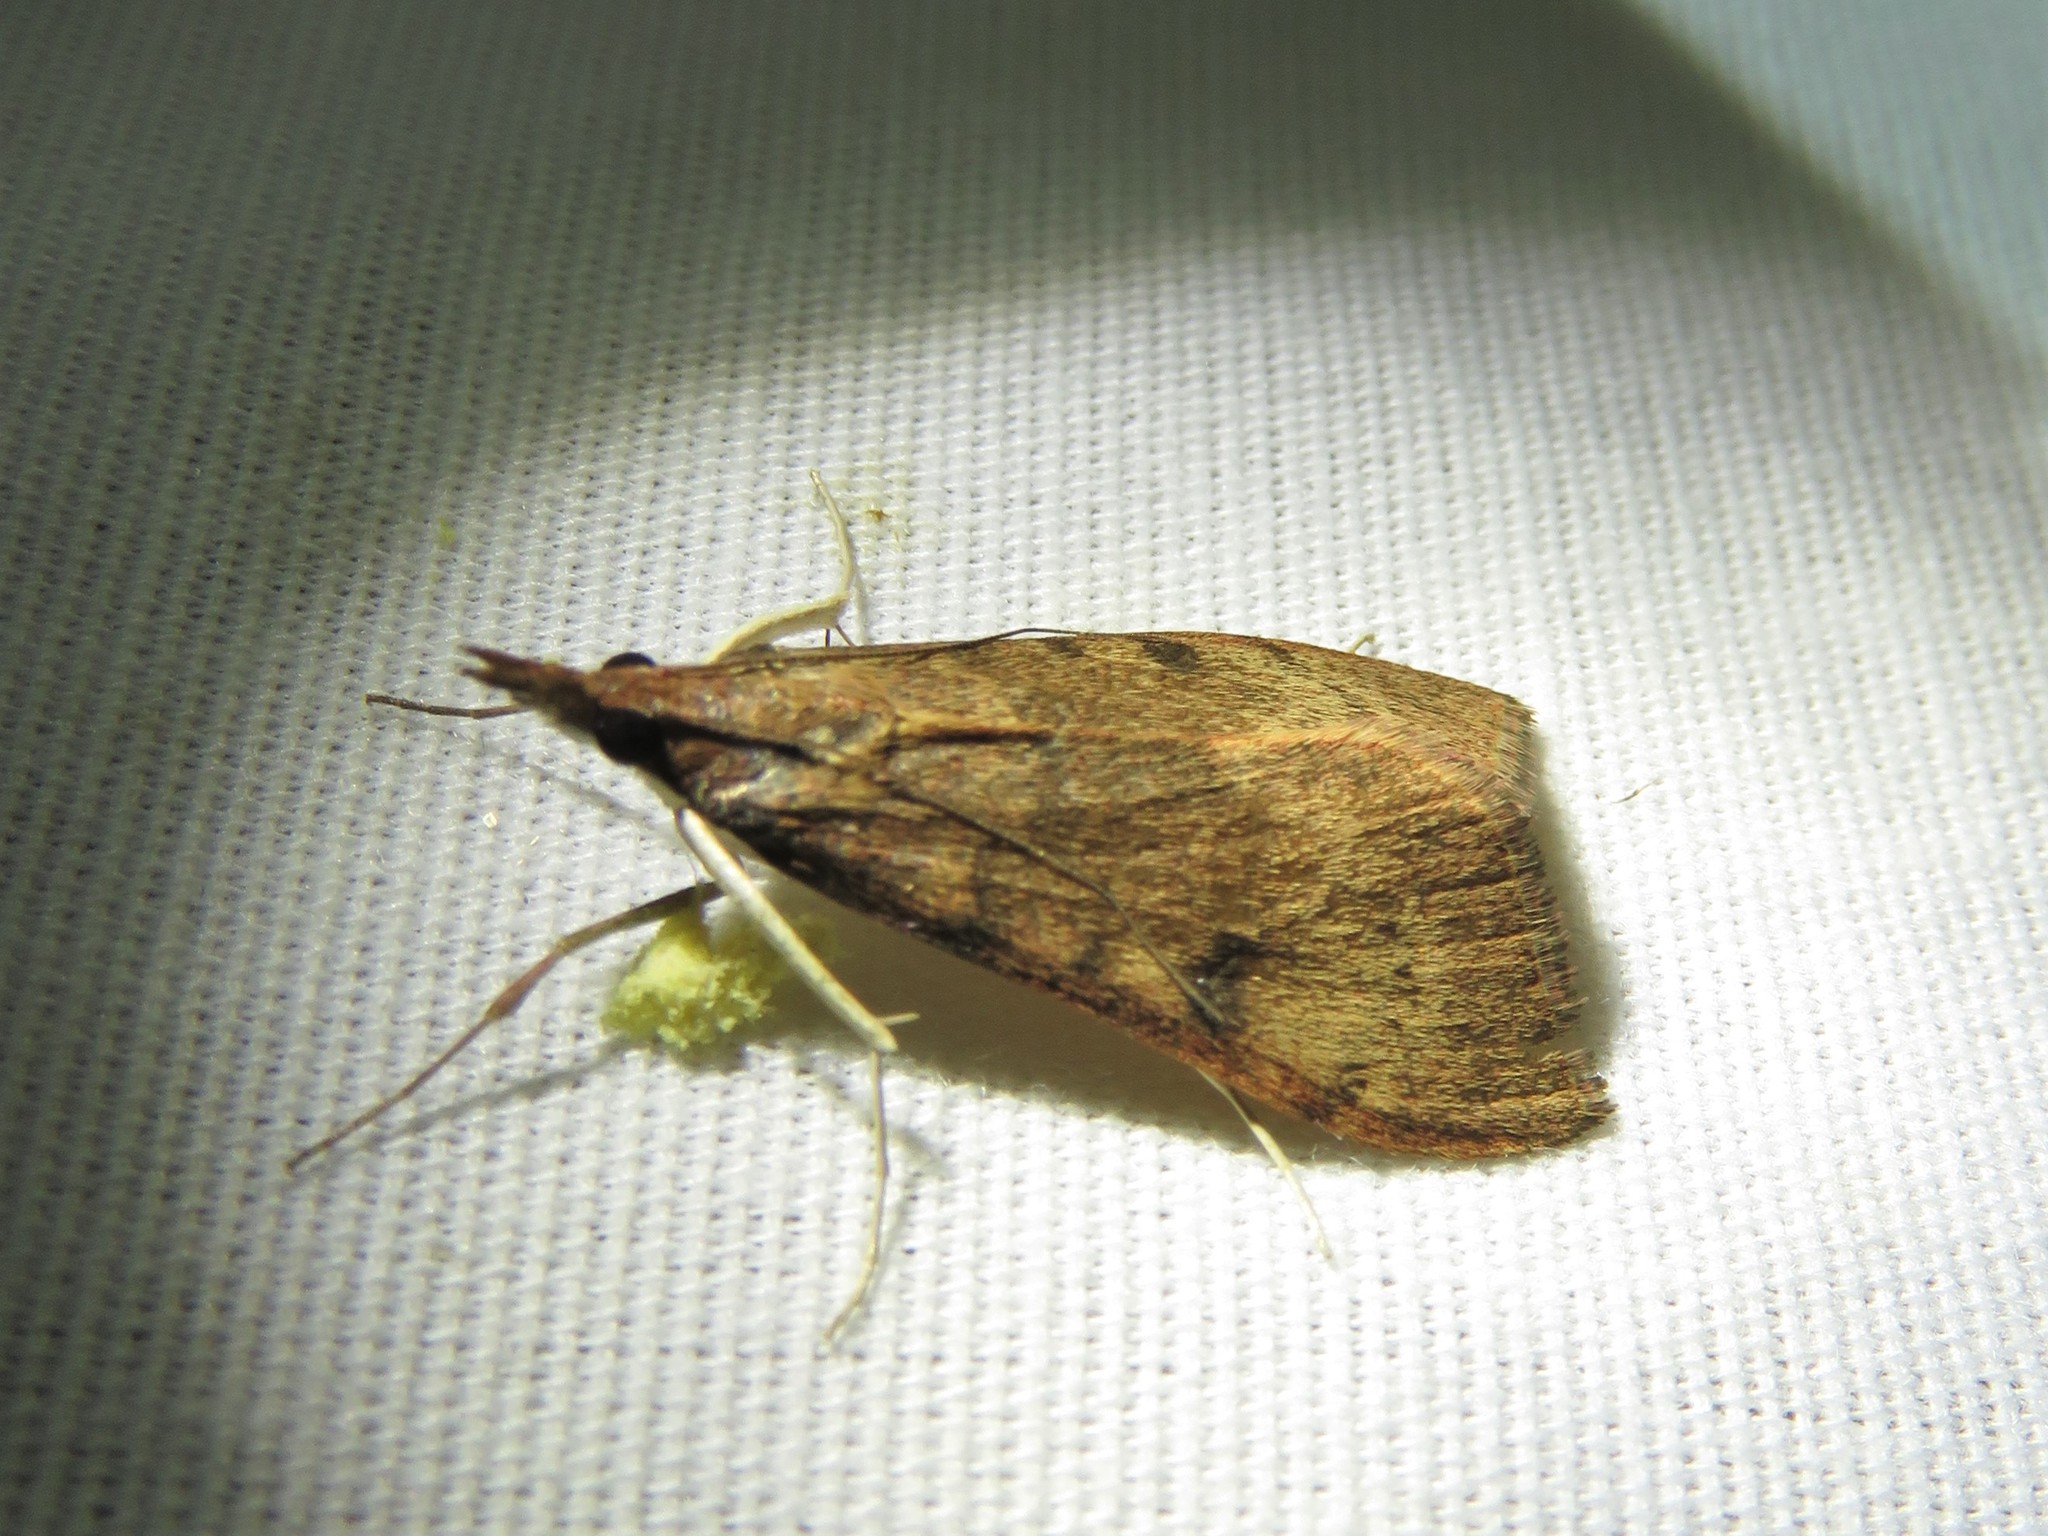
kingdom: Animalia
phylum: Arthropoda
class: Insecta
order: Lepidoptera
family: Crambidae
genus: Uresiphita
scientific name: Uresiphita reversalis
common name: Genista broom moth
